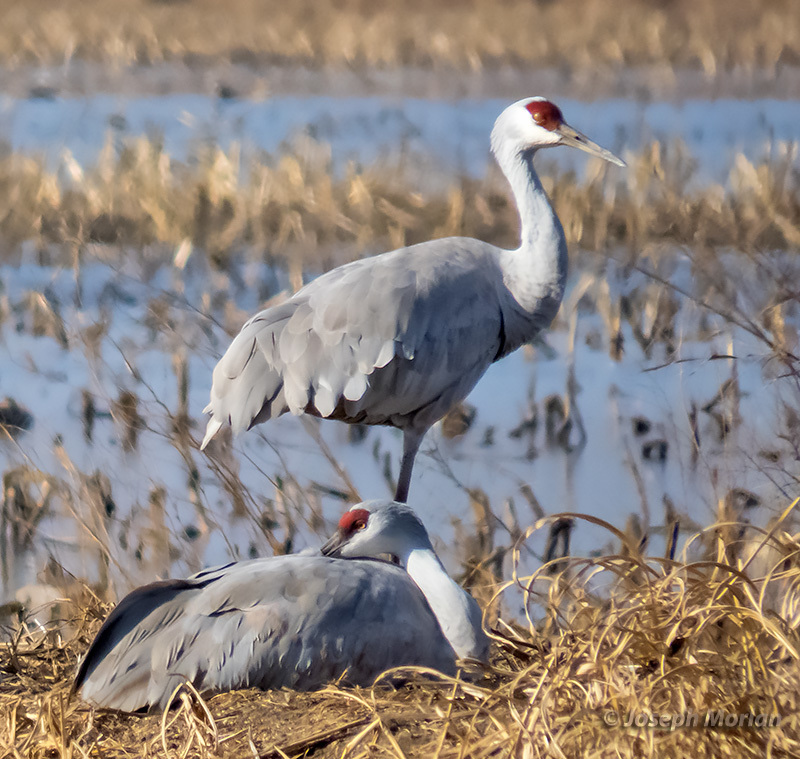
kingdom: Animalia
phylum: Chordata
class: Aves
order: Gruiformes
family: Gruidae
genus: Grus
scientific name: Grus canadensis
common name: Sandhill crane
